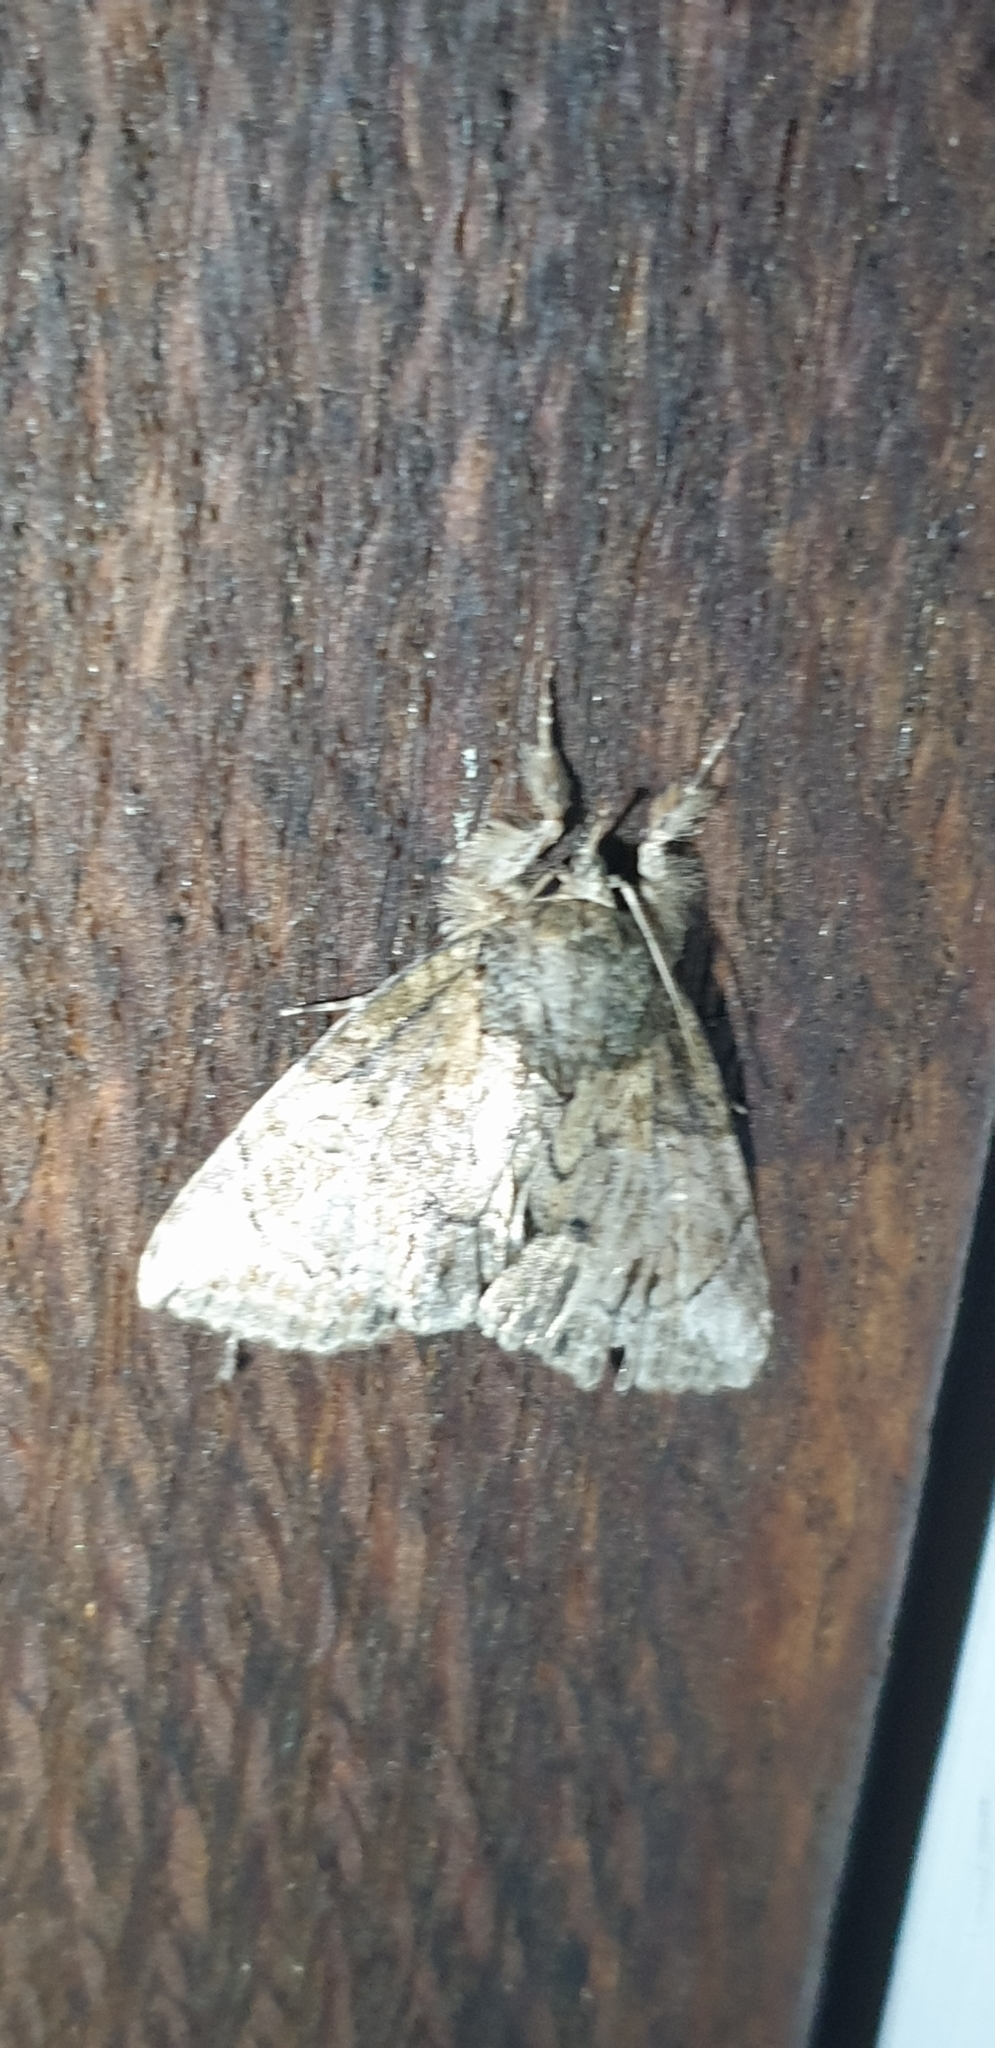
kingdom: Animalia
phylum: Arthropoda
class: Insecta
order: Lepidoptera
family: Nolidae
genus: Plotheia
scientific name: Plotheia exacta
